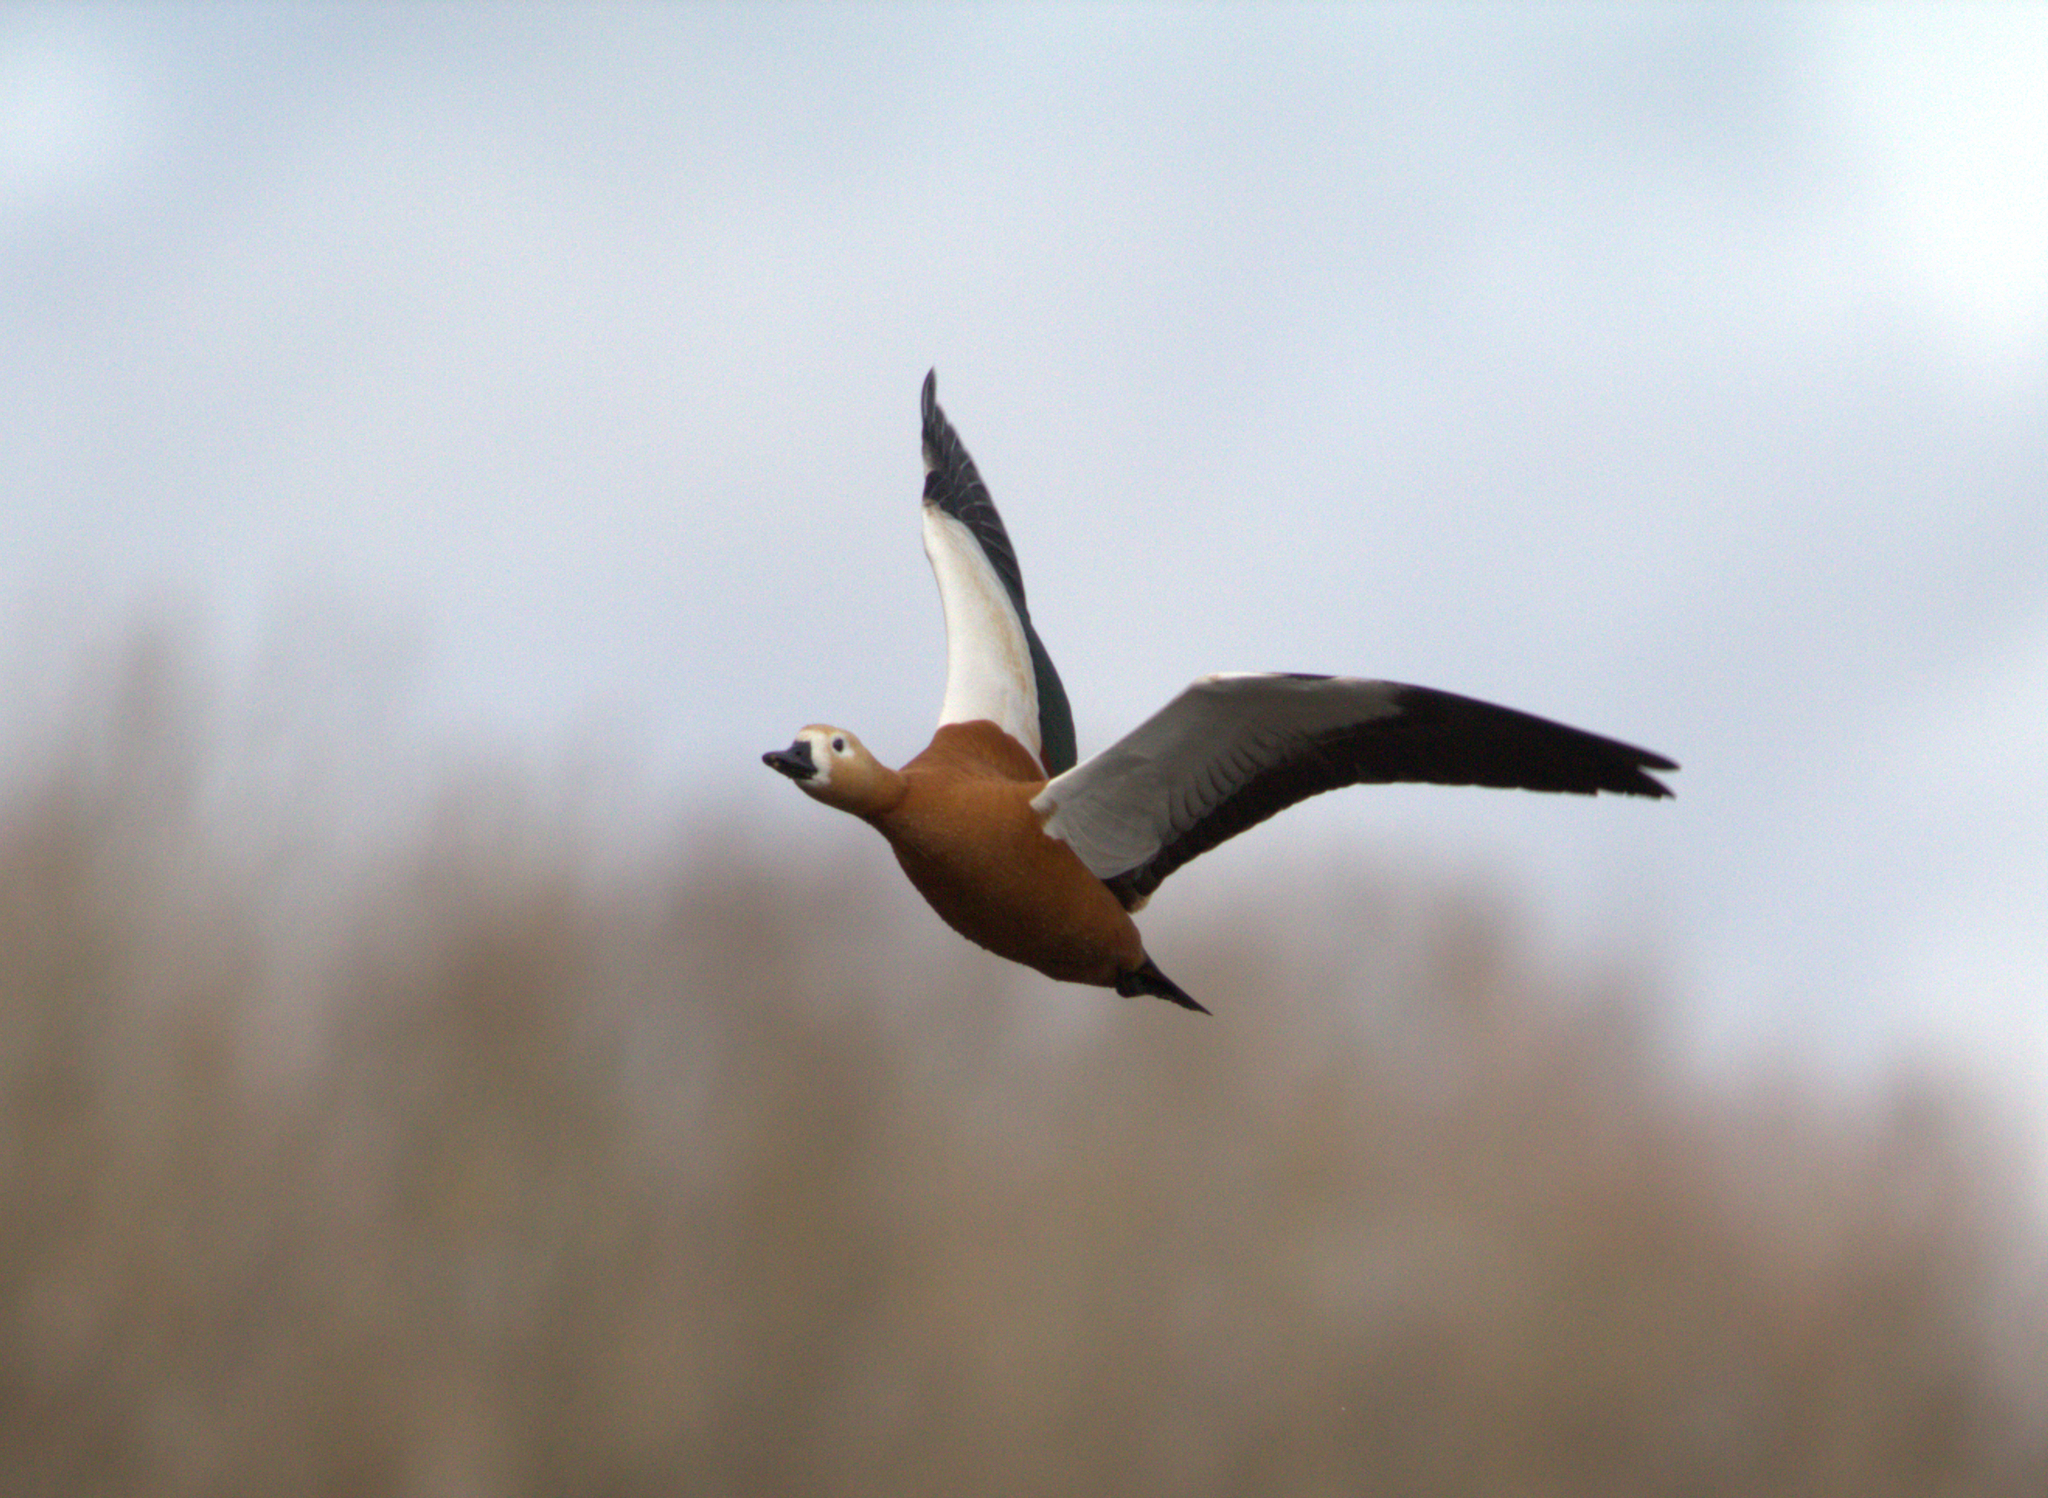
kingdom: Animalia
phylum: Chordata
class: Aves
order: Anseriformes
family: Anatidae
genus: Tadorna
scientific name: Tadorna ferruginea
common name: Ruddy shelduck
